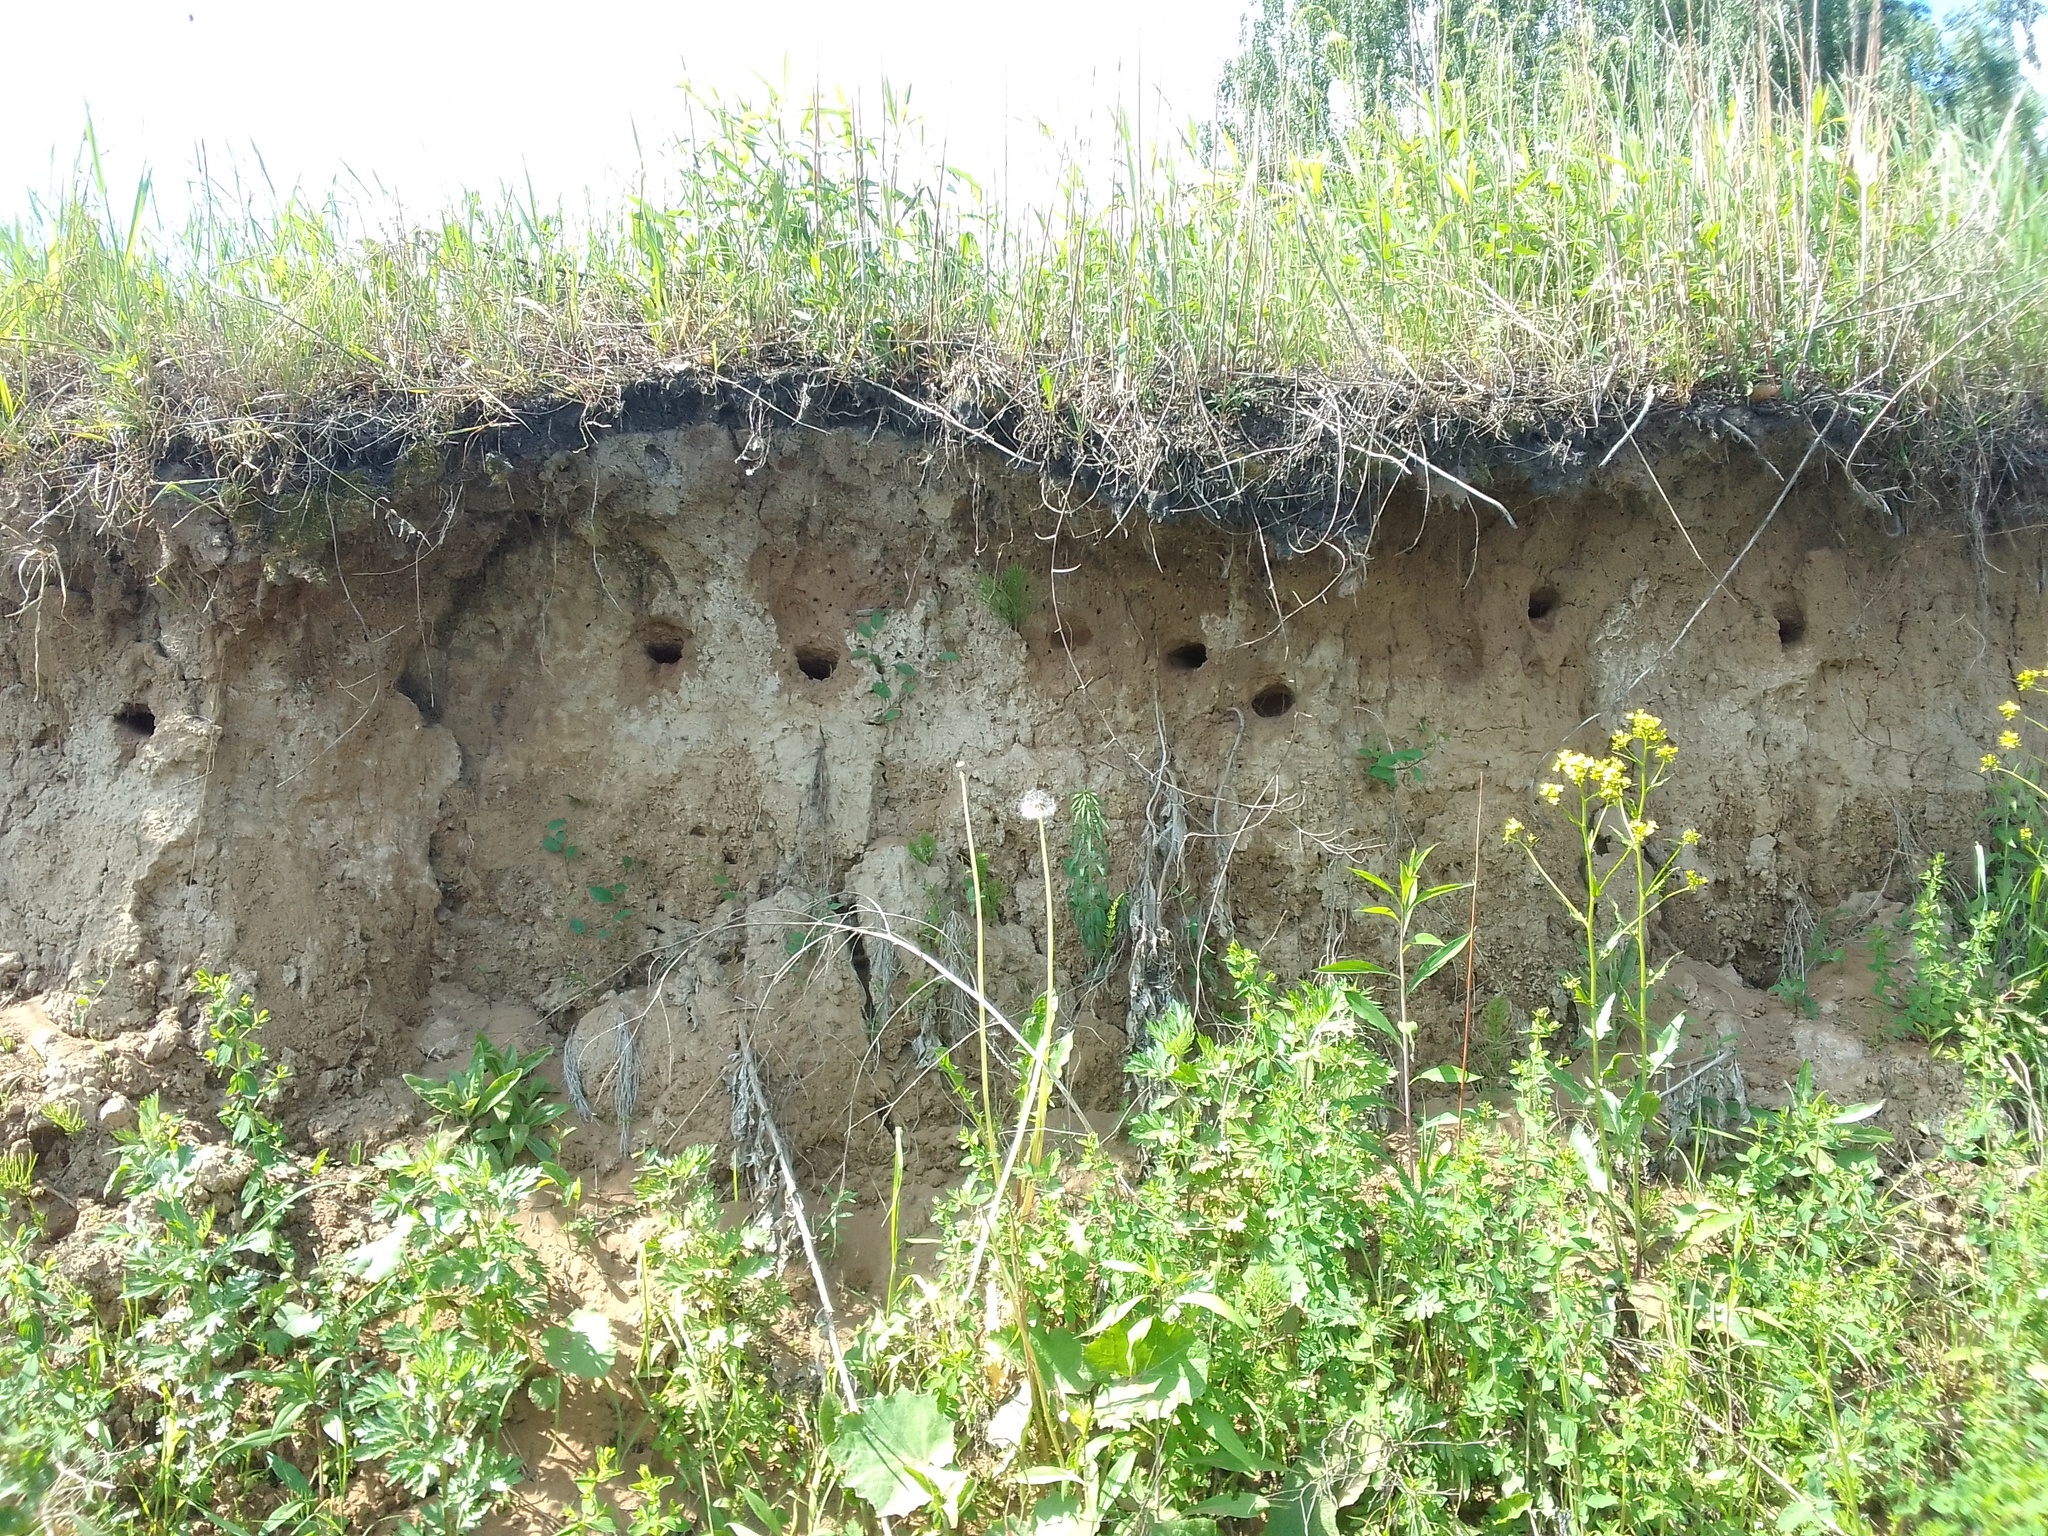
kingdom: Animalia
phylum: Chordata
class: Aves
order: Passeriformes
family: Hirundinidae
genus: Riparia
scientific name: Riparia riparia
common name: Sand martin
